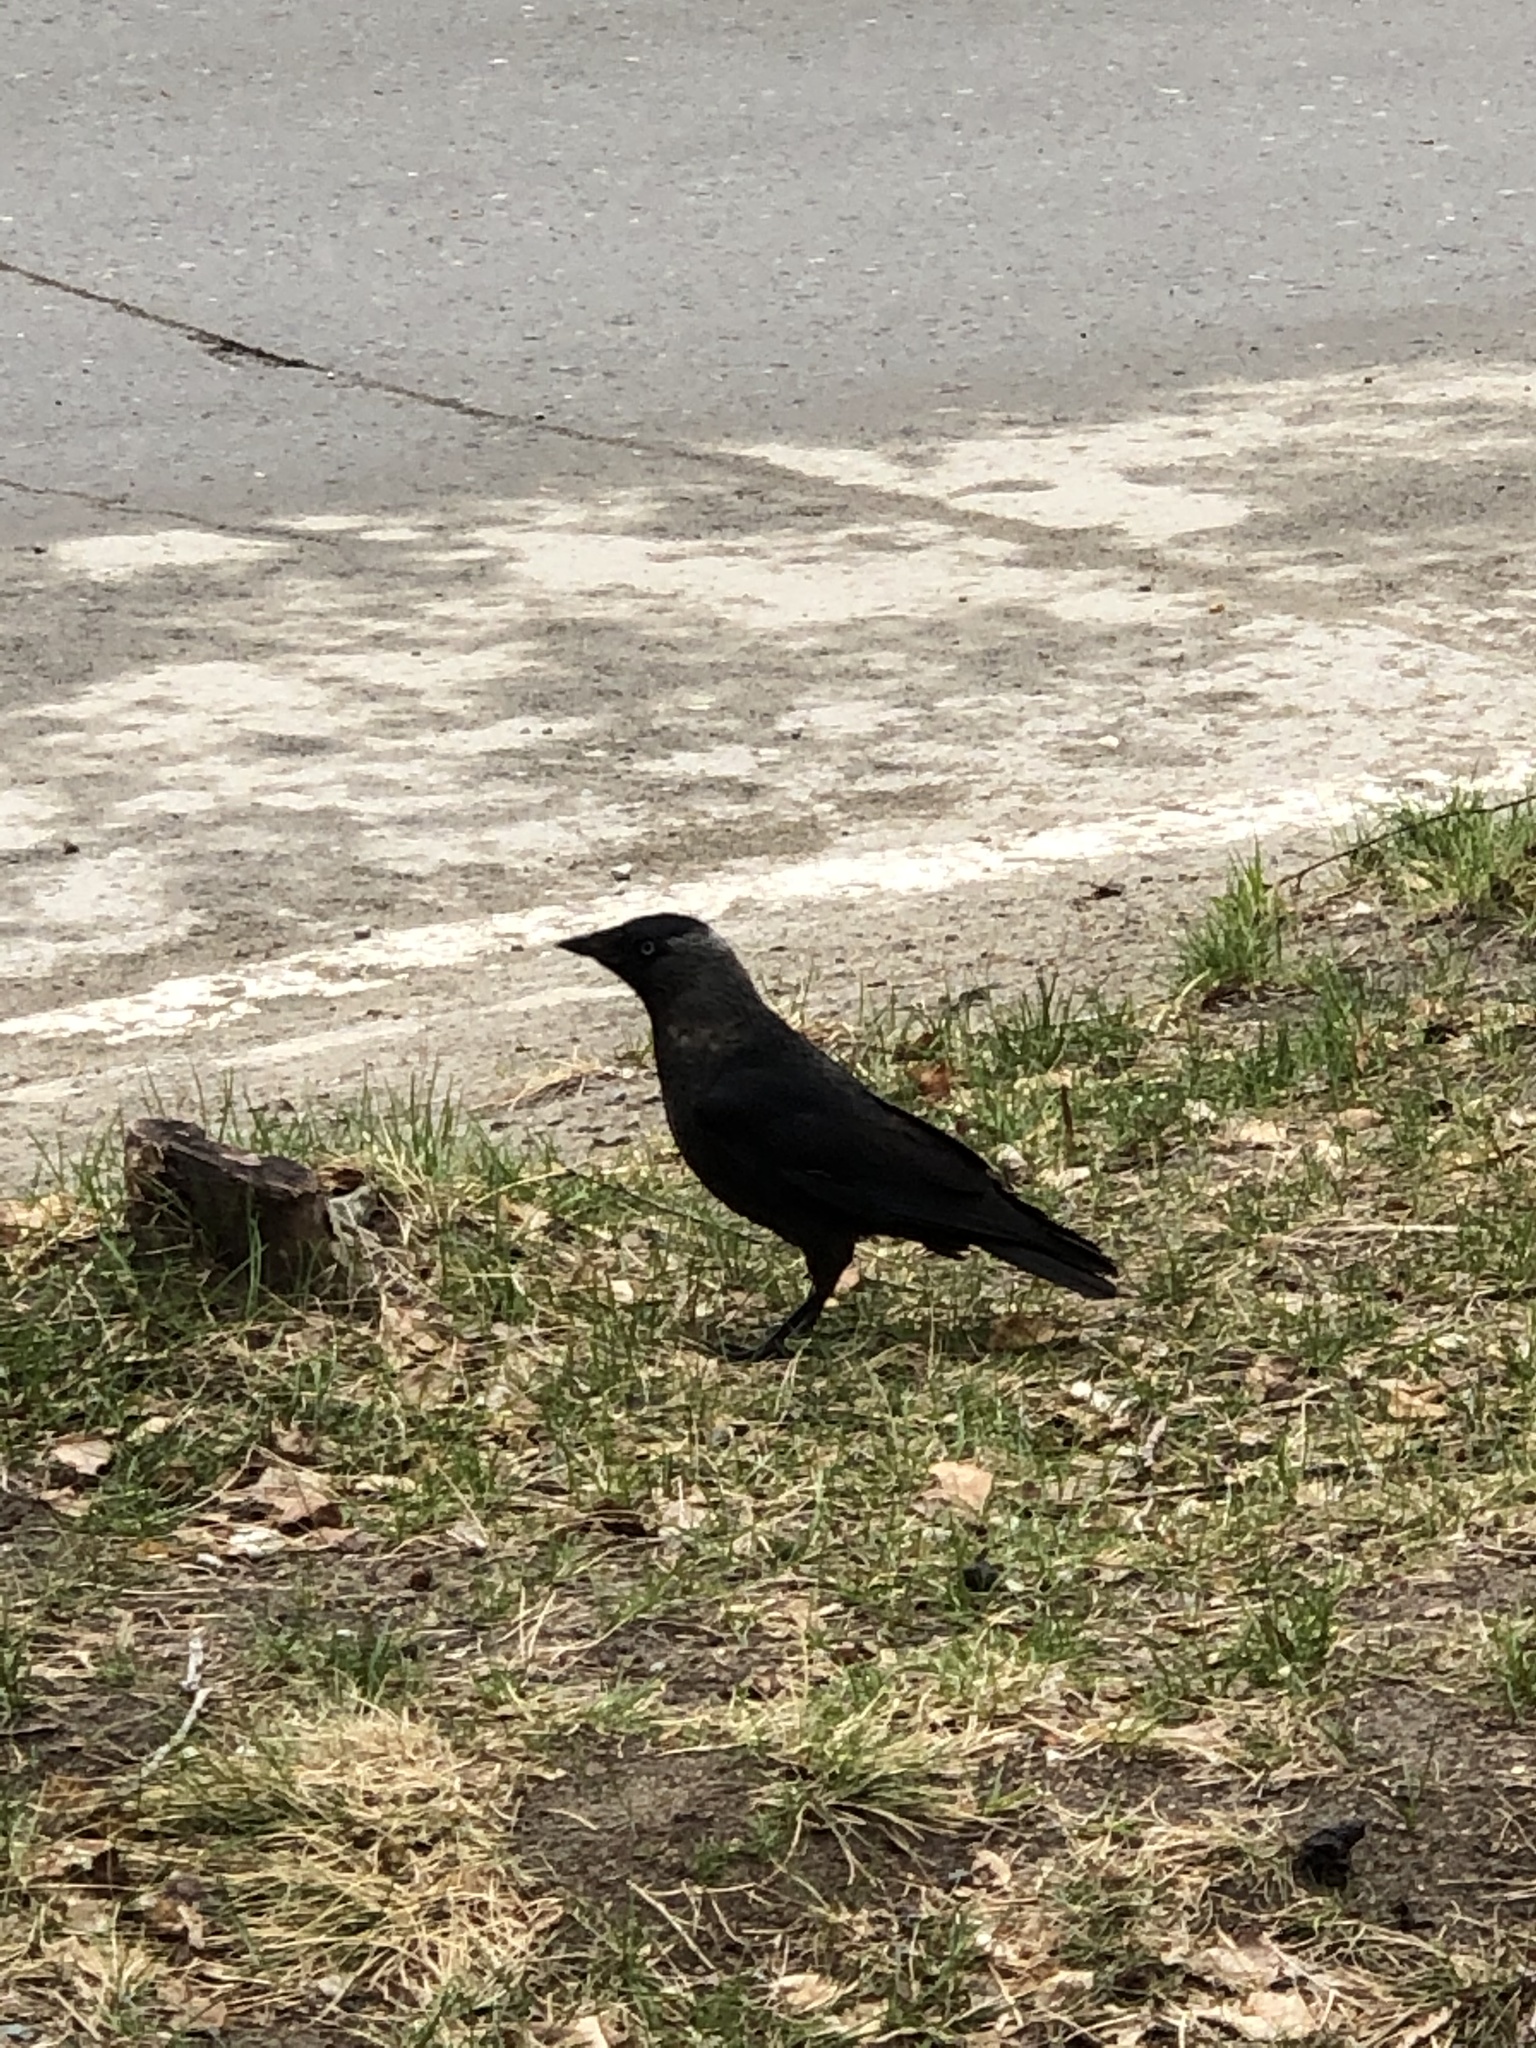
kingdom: Animalia
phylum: Chordata
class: Aves
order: Passeriformes
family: Corvidae
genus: Coloeus
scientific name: Coloeus monedula
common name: Western jackdaw
